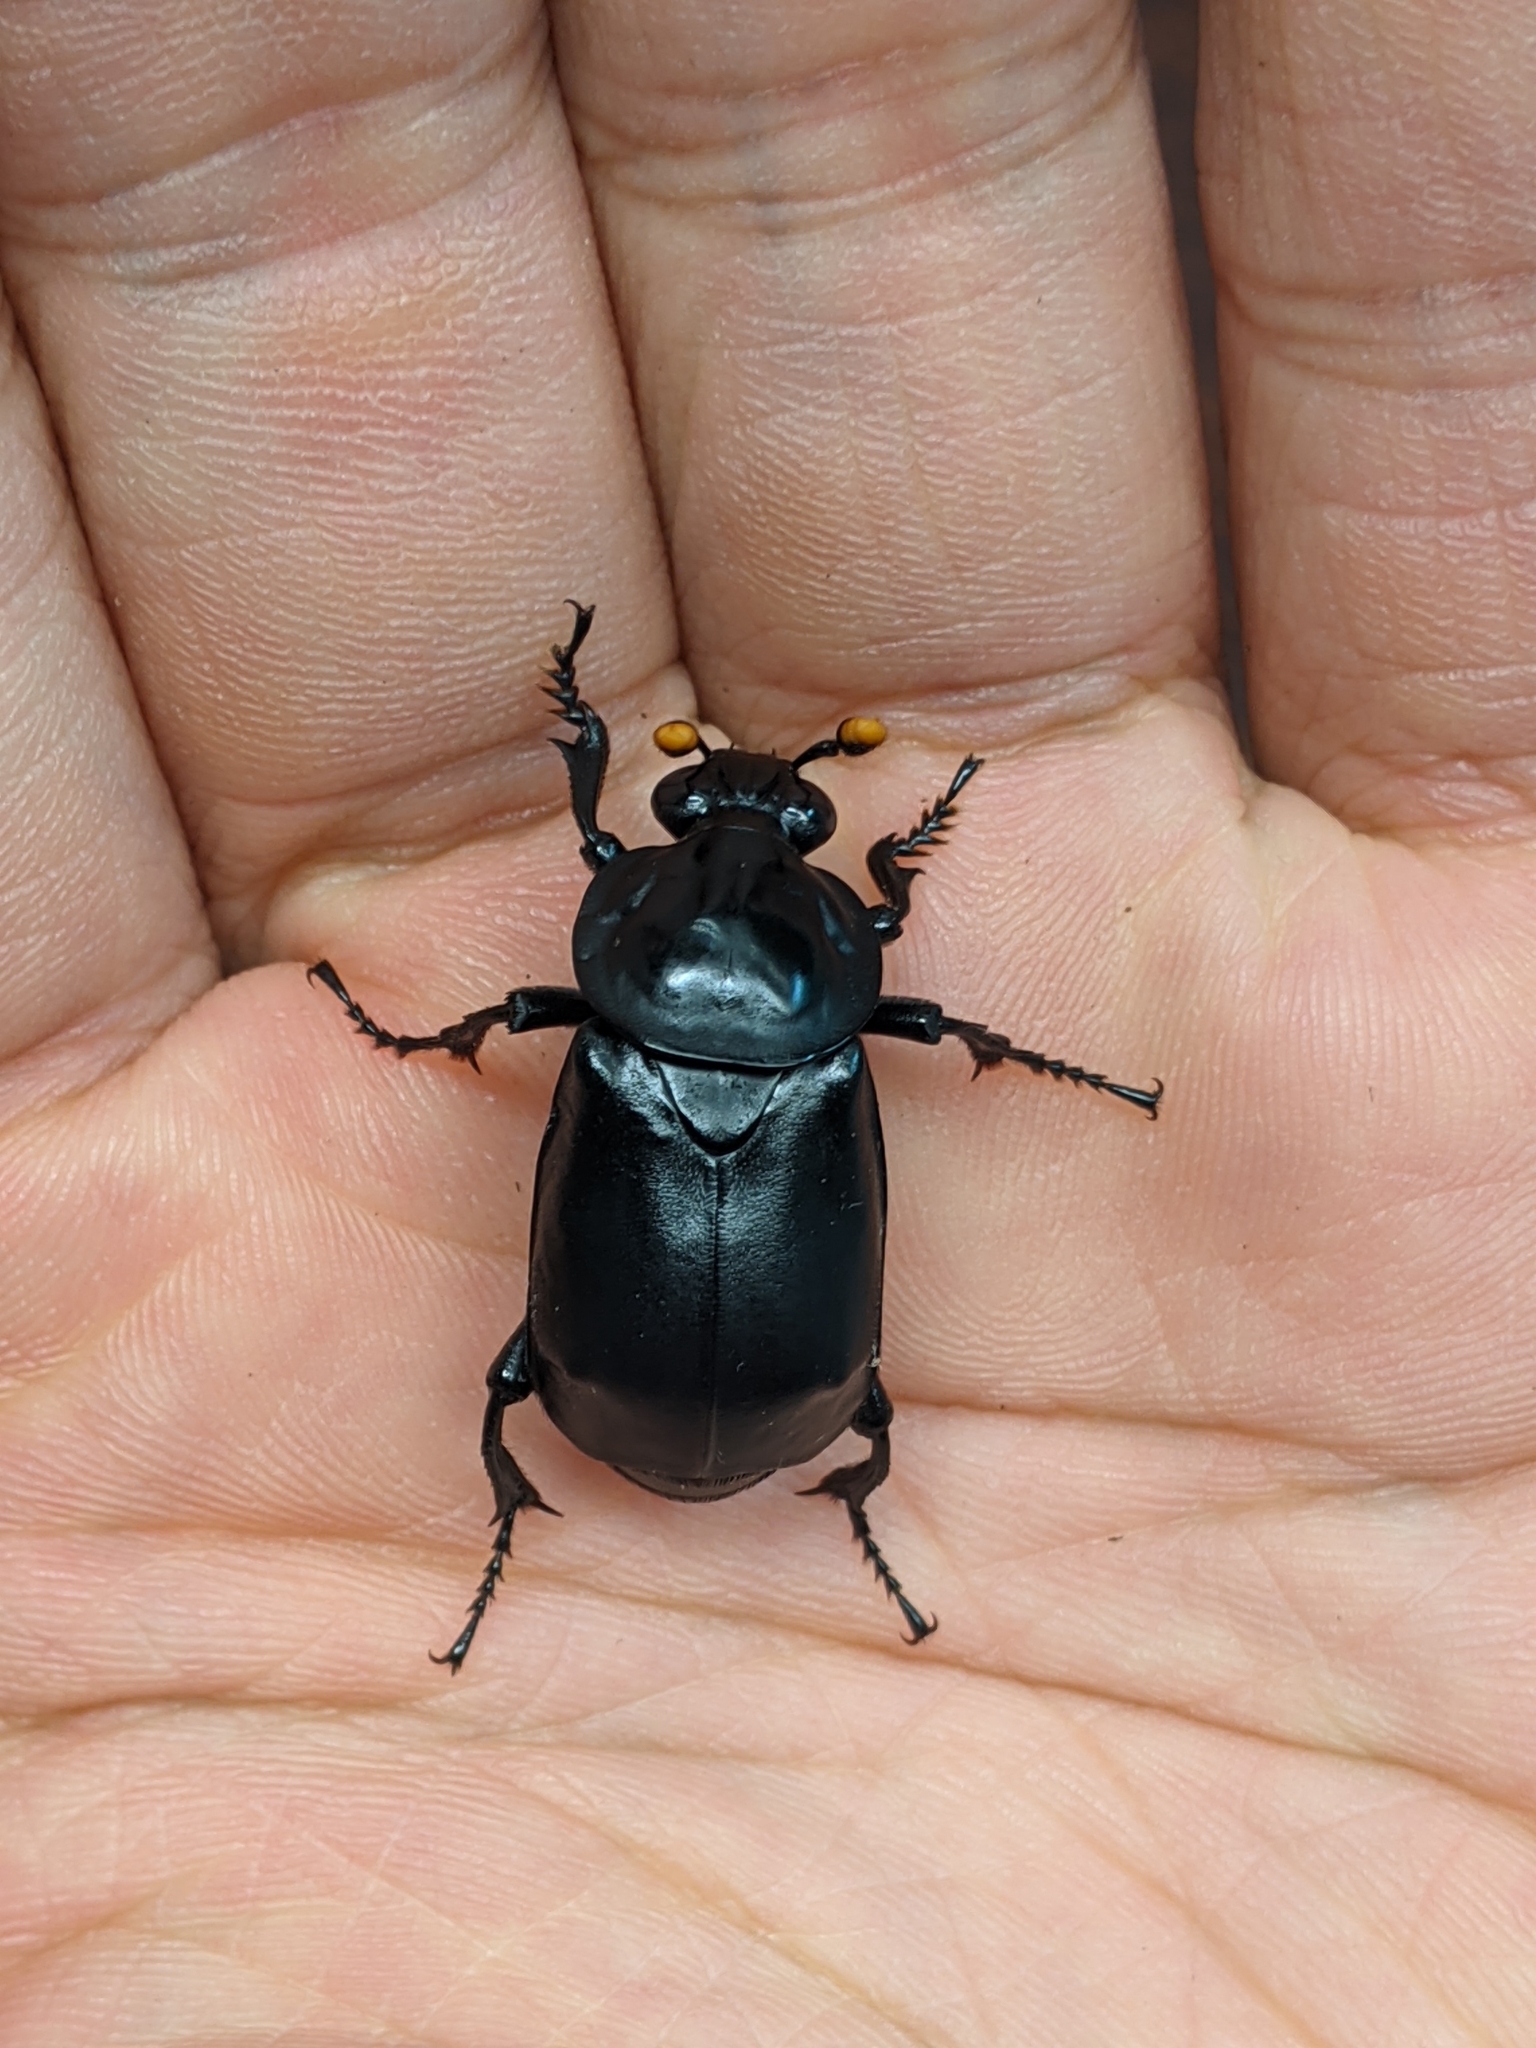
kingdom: Animalia
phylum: Arthropoda
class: Insecta
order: Coleoptera
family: Staphylinidae
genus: Nicrophorus
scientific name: Nicrophorus concolor
